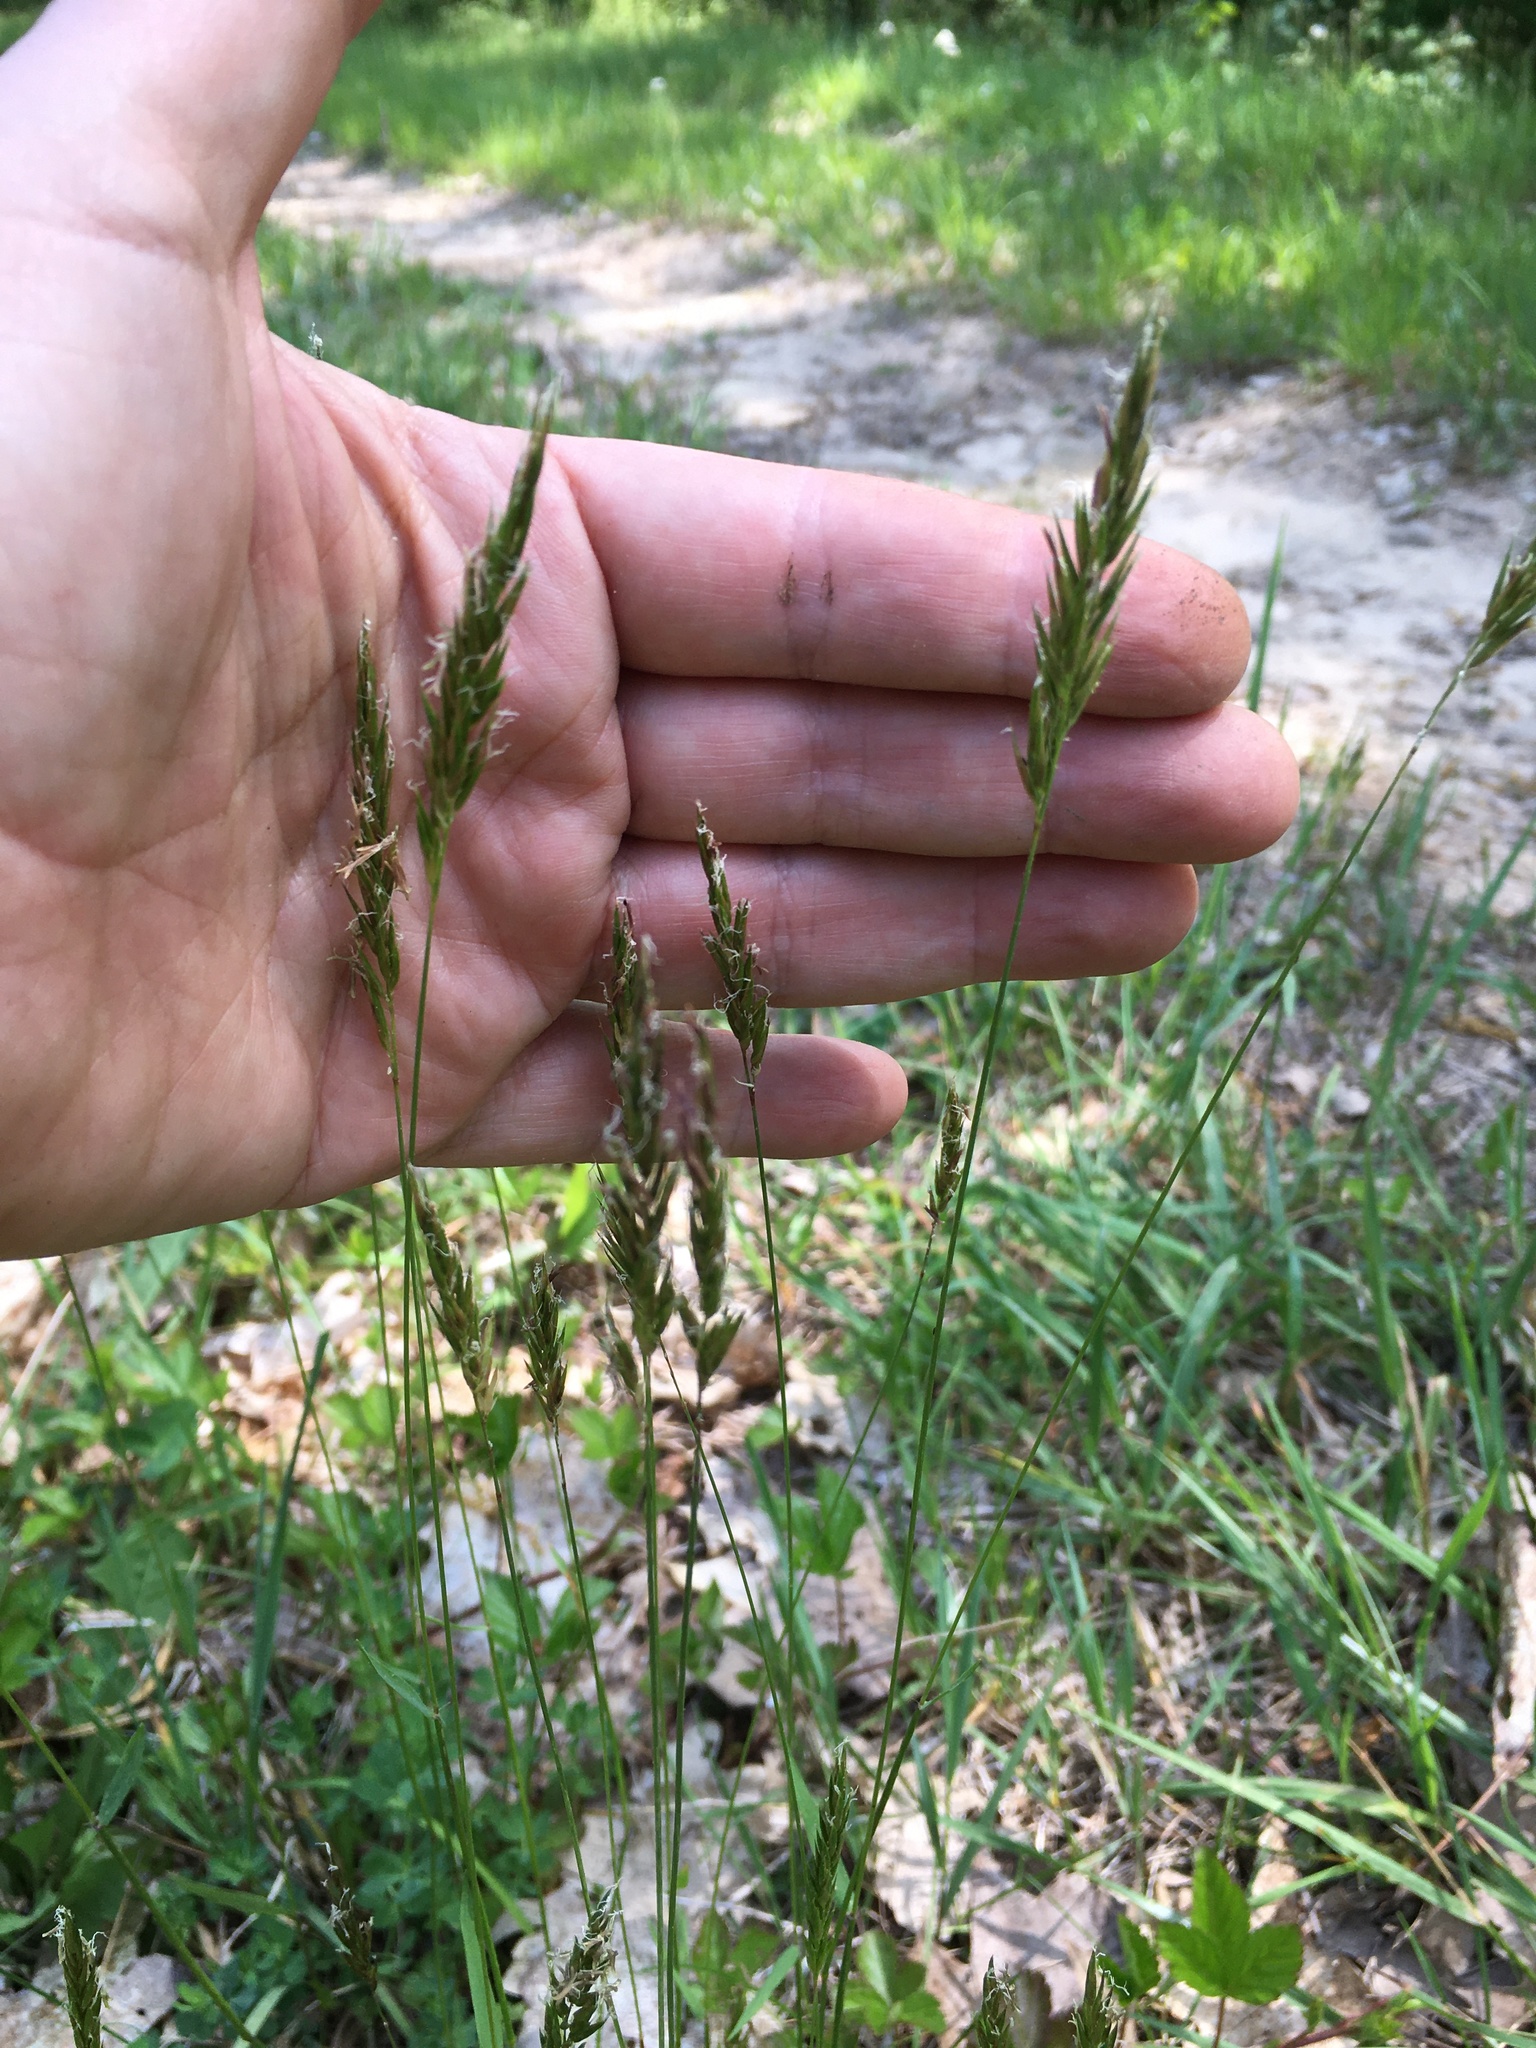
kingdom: Plantae
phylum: Tracheophyta
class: Liliopsida
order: Poales
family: Poaceae
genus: Anthoxanthum
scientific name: Anthoxanthum odoratum
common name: Sweet vernalgrass
